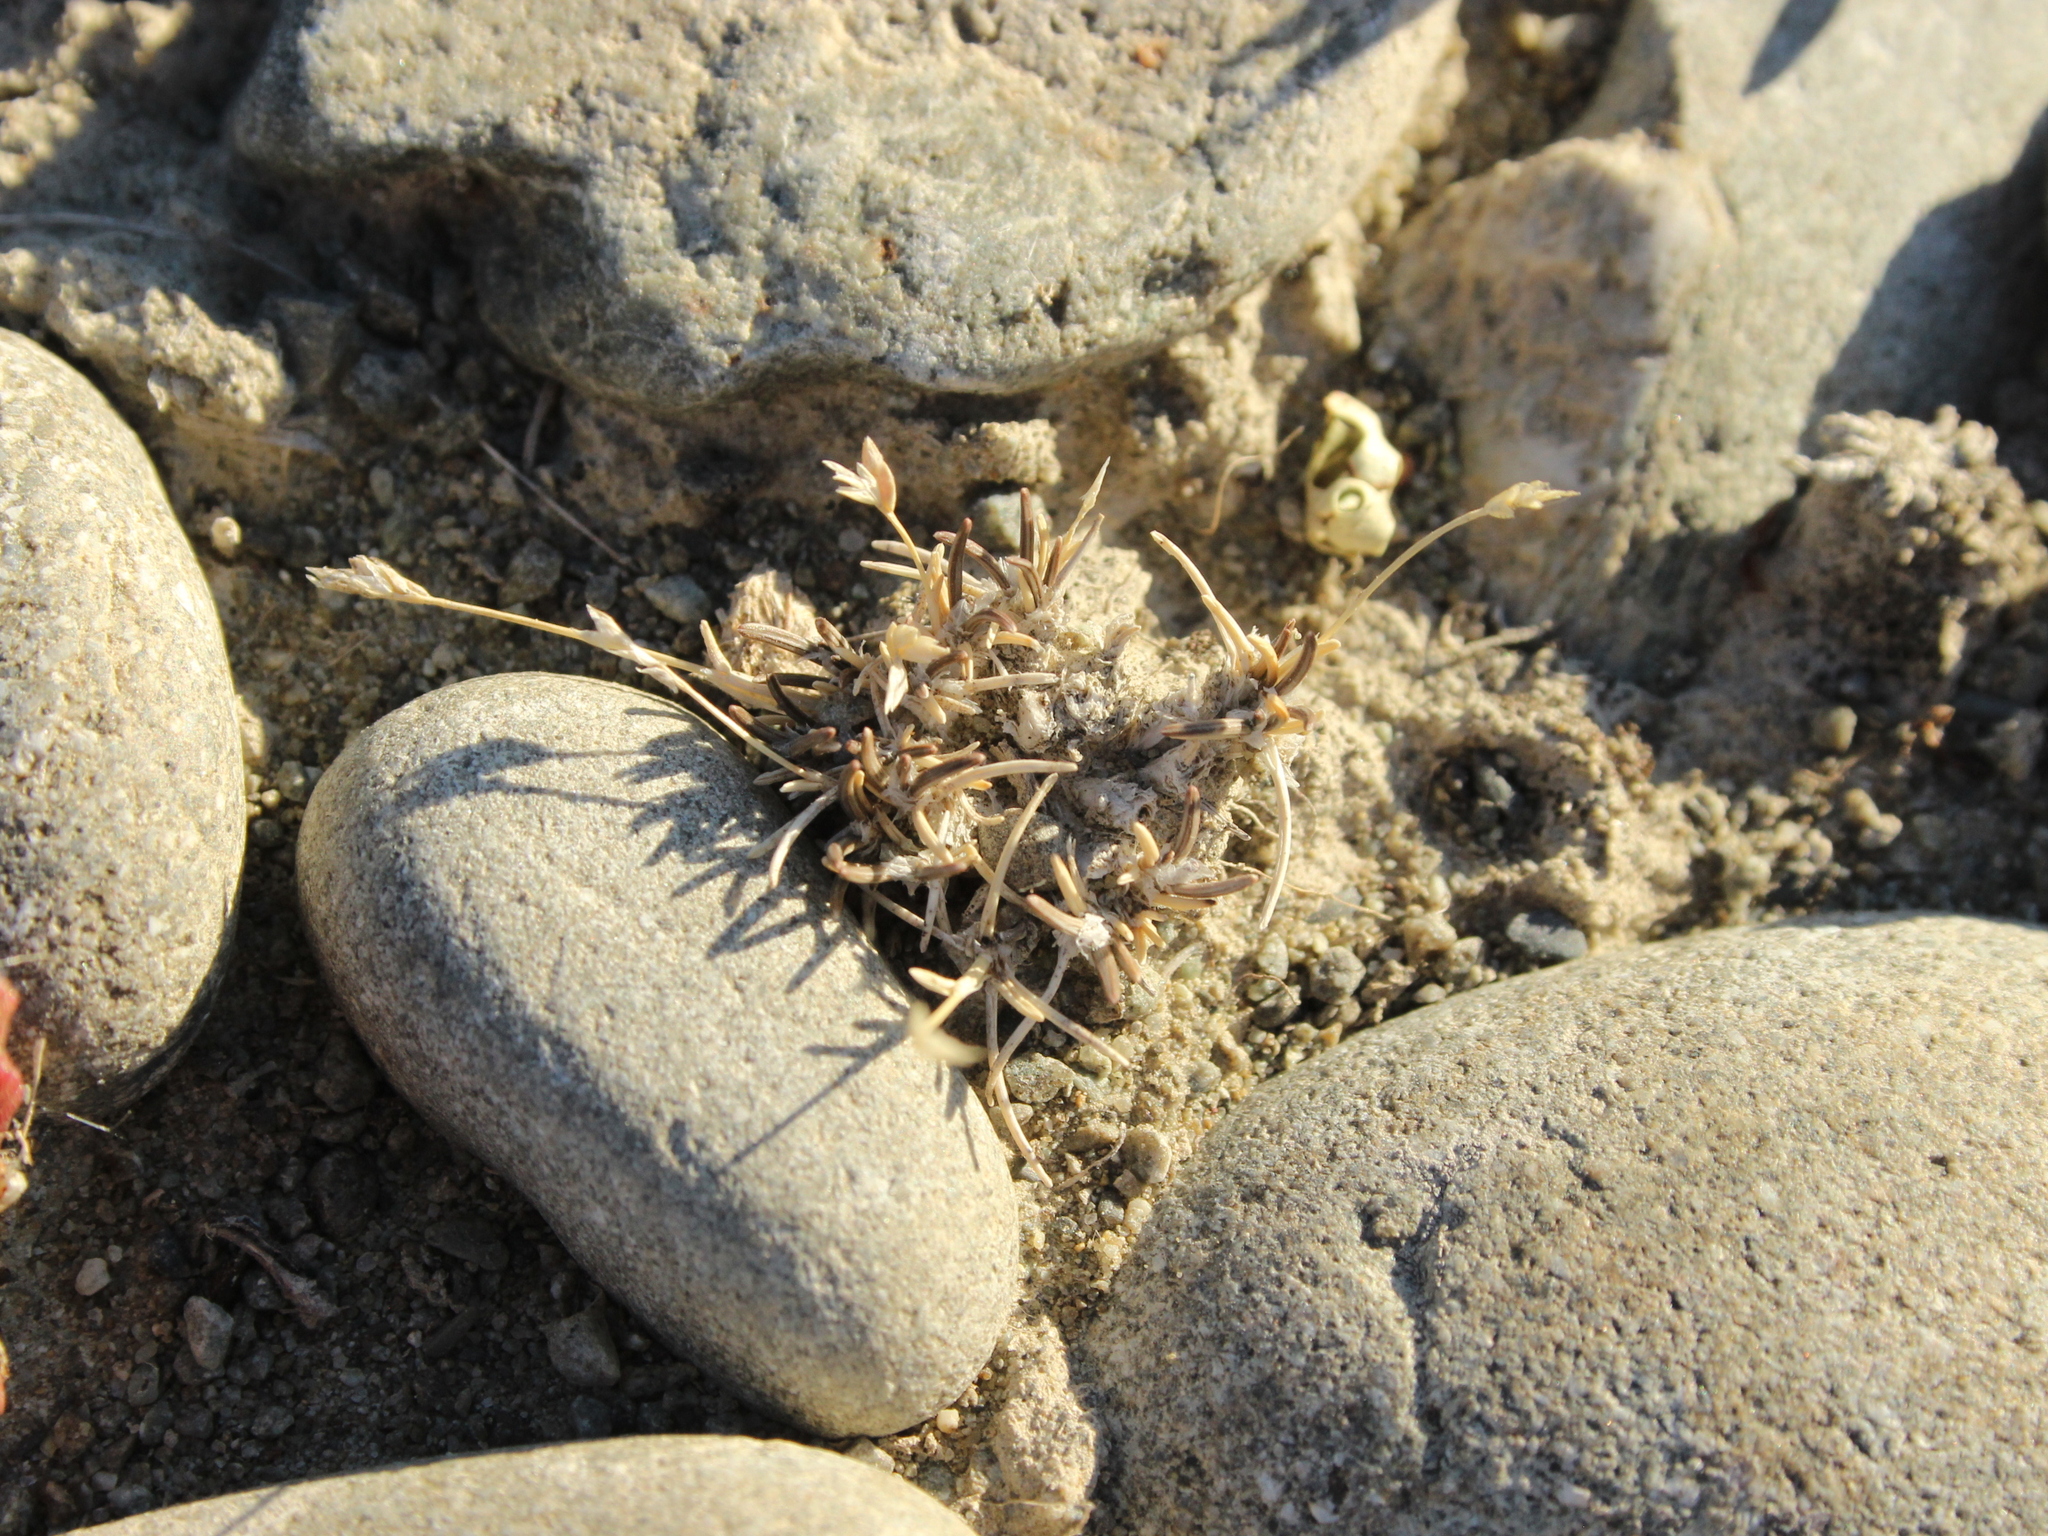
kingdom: Plantae
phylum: Tracheophyta
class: Liliopsida
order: Poales
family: Poaceae
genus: Poa
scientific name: Poa maniototo
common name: Desert poa
